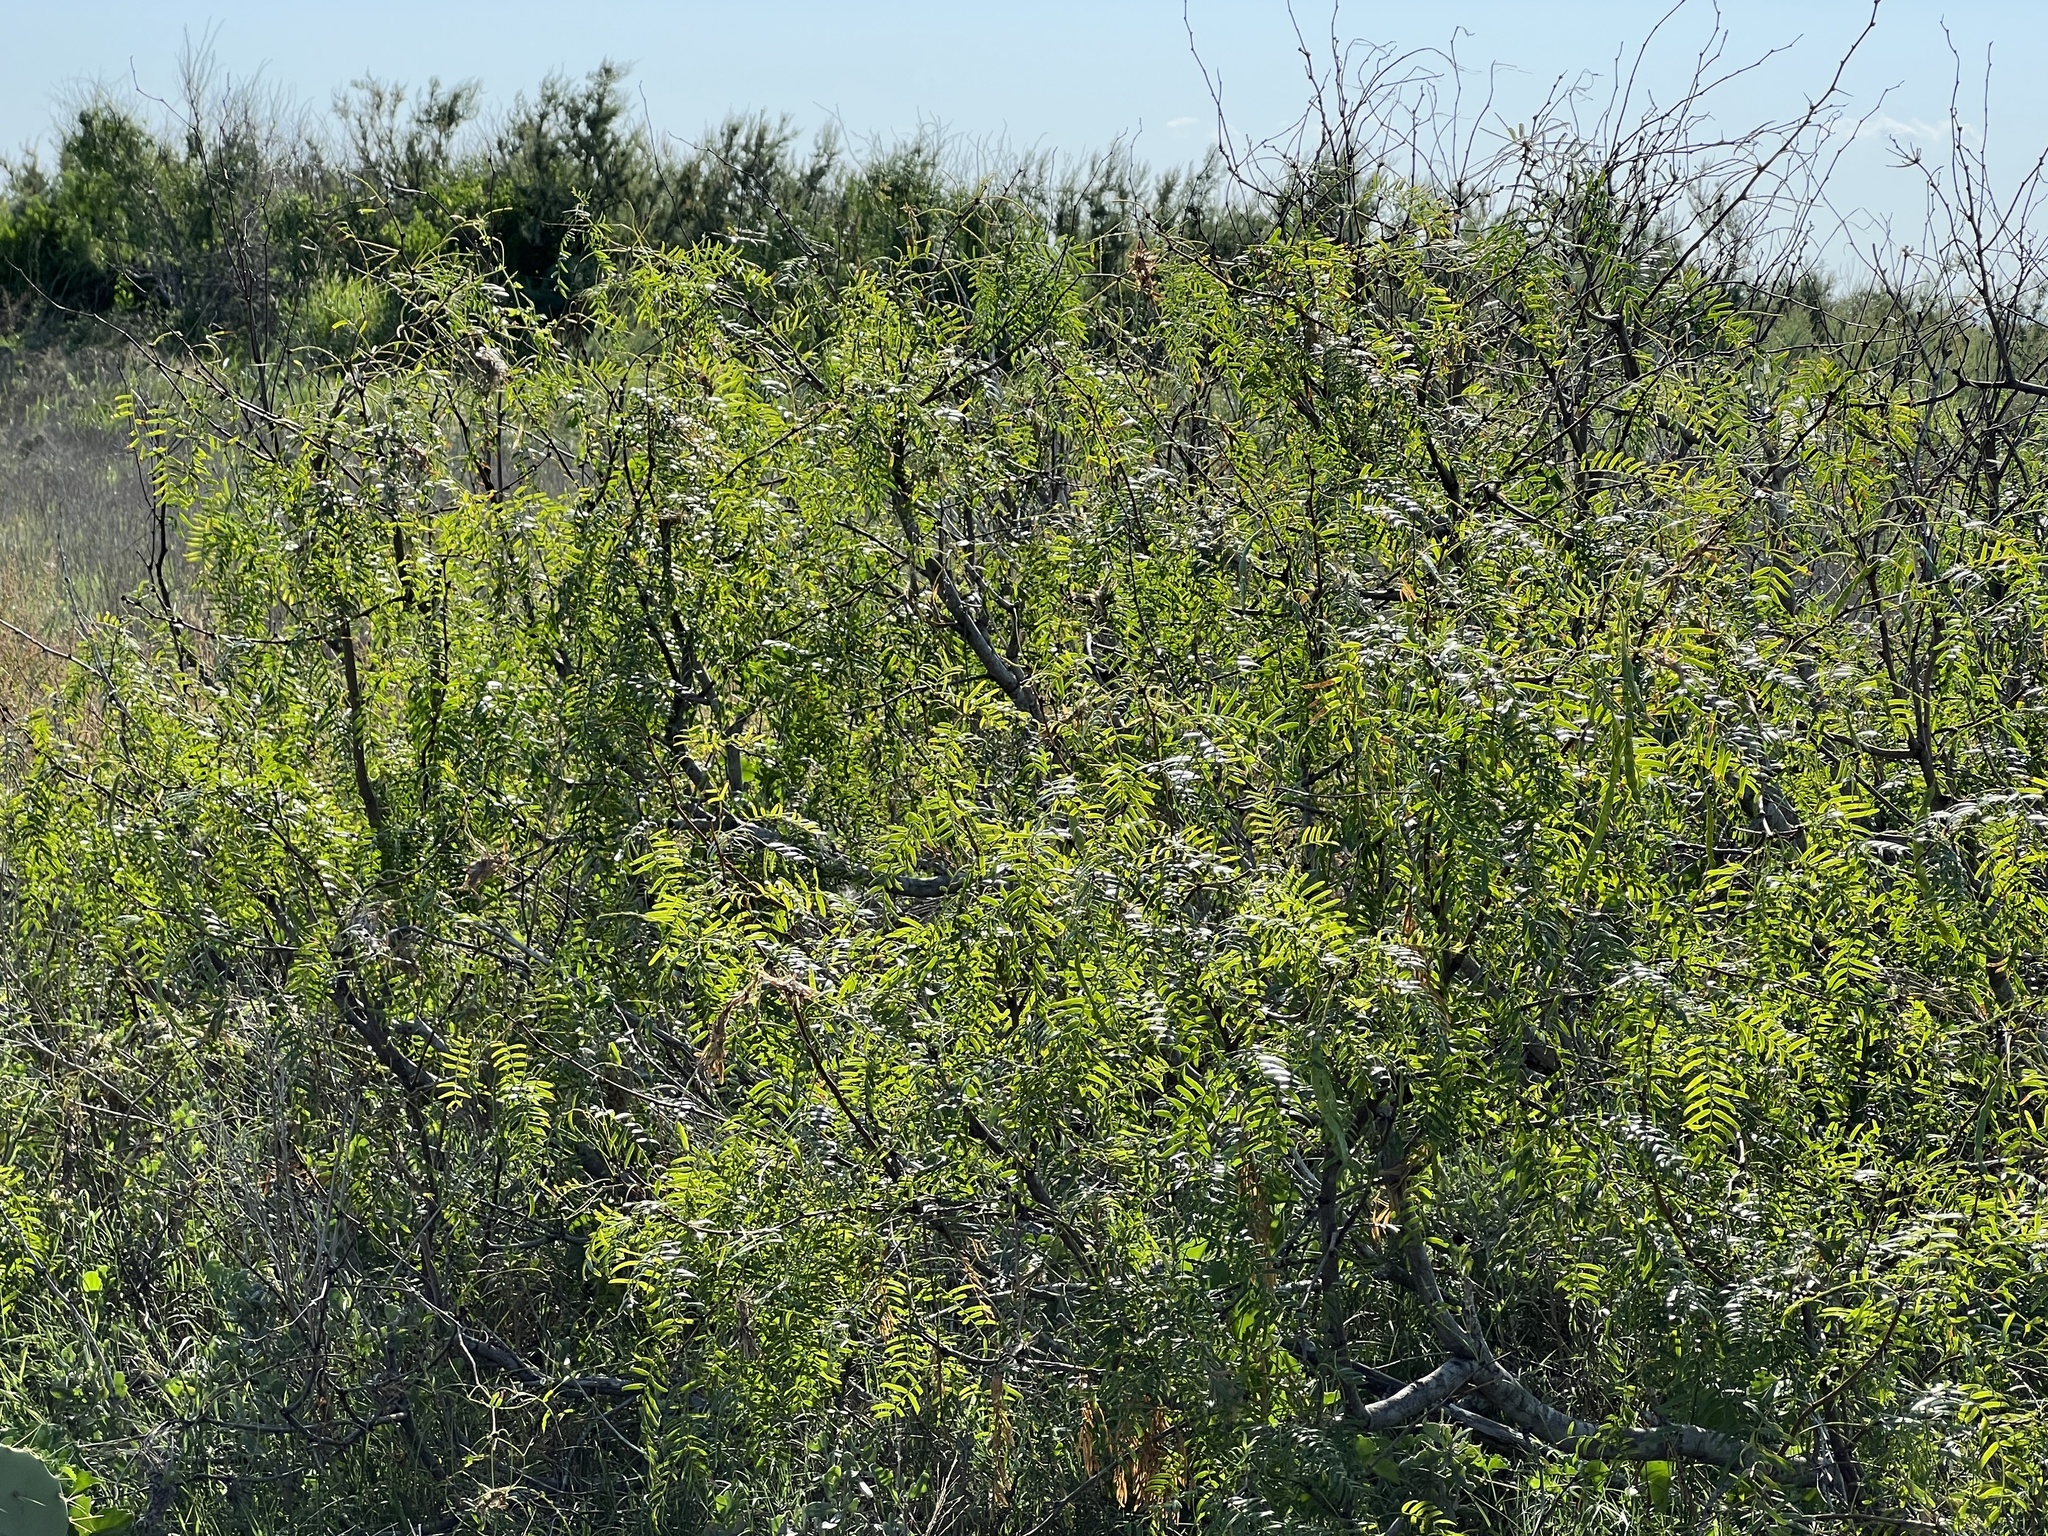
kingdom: Plantae
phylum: Tracheophyta
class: Magnoliopsida
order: Fabales
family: Fabaceae
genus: Prosopis
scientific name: Prosopis glandulosa
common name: Honey mesquite
